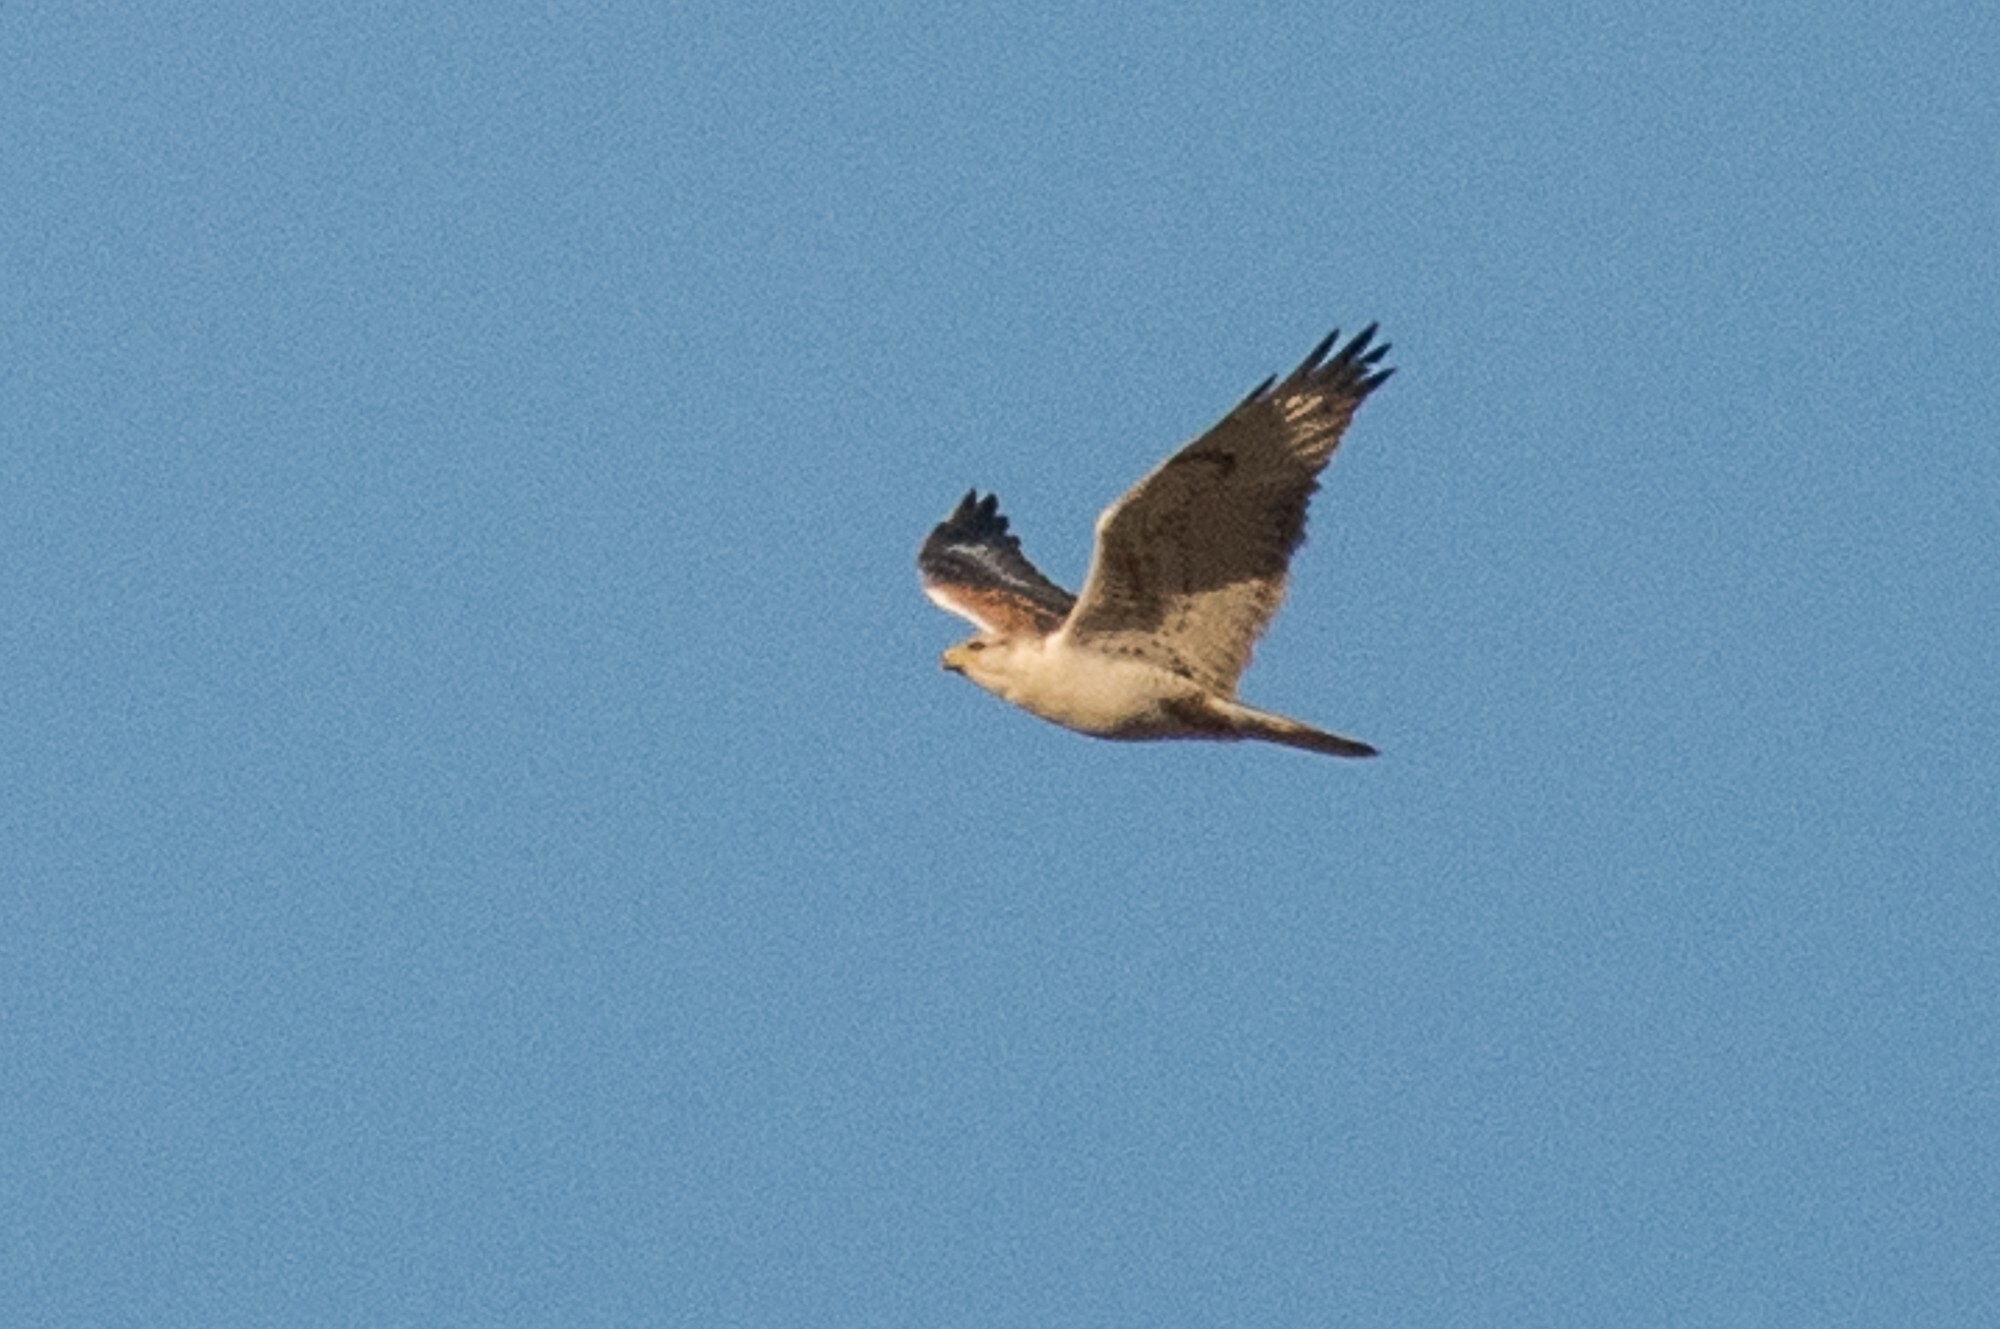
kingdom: Animalia
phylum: Chordata
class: Aves
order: Accipitriformes
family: Accipitridae
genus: Buteo
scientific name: Buteo regalis
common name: Ferruginous hawk
